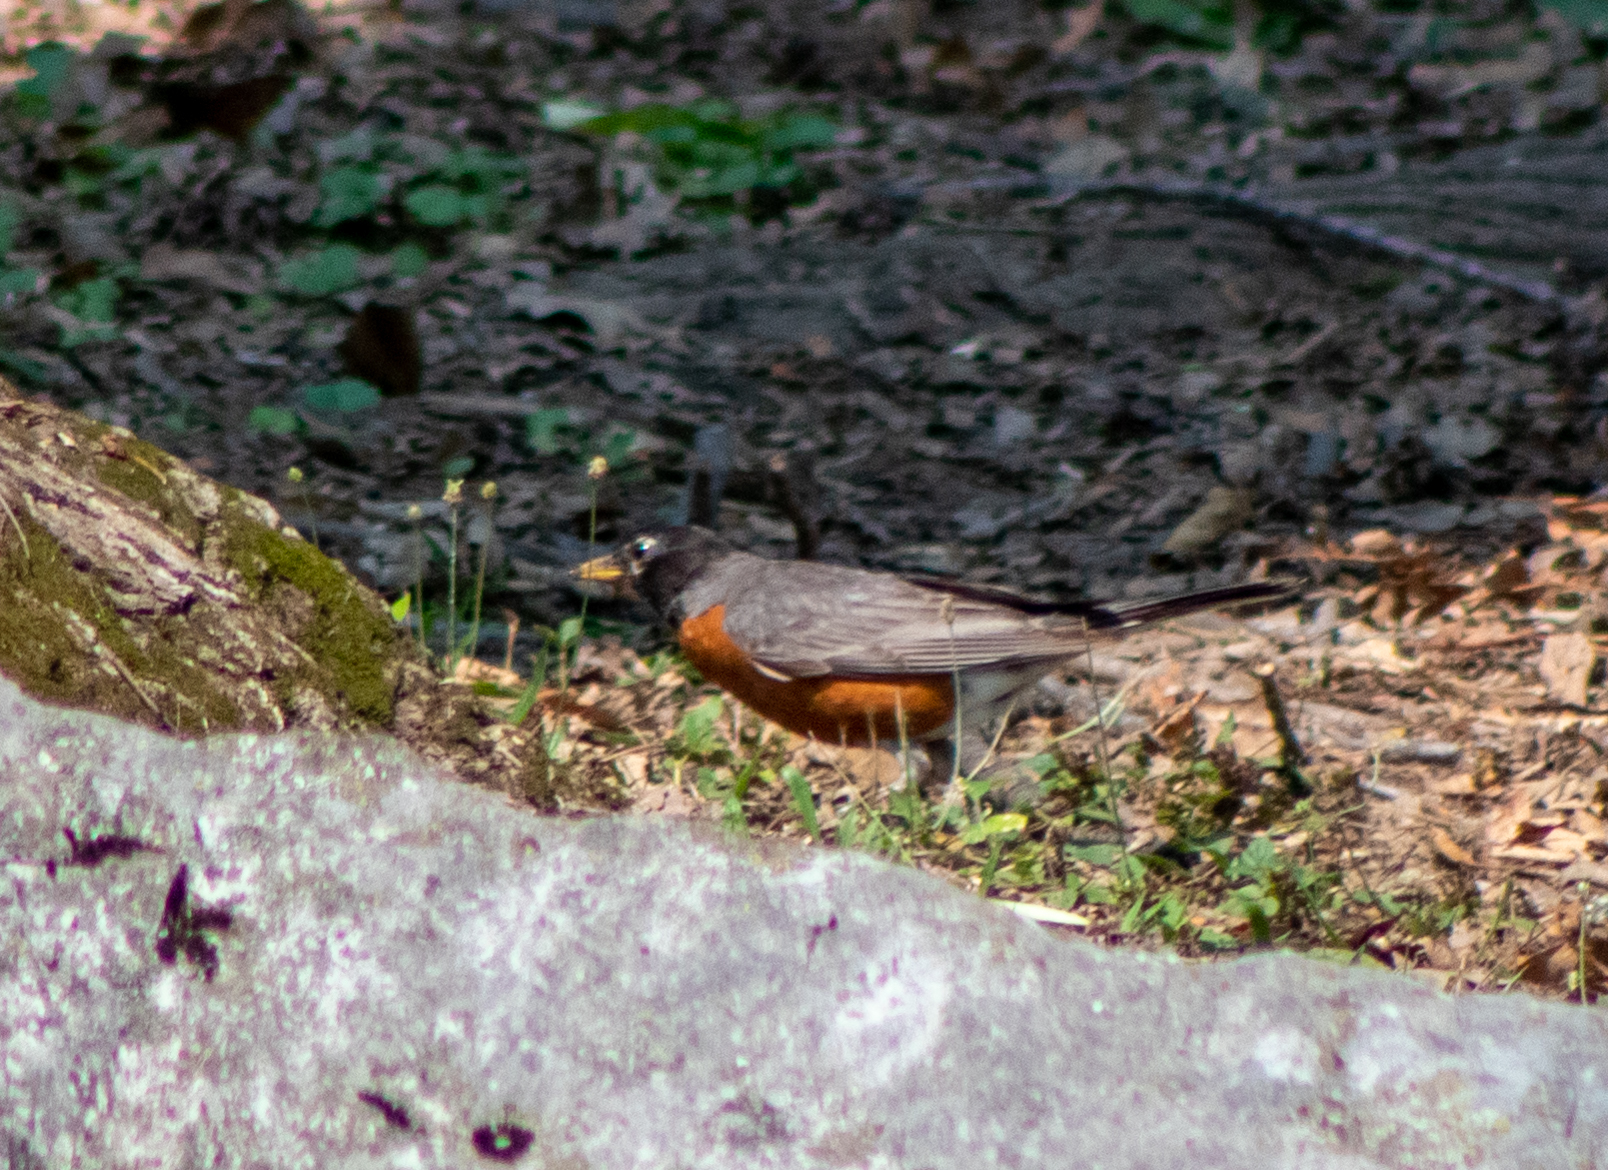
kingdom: Animalia
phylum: Chordata
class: Aves
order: Passeriformes
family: Turdidae
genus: Turdus
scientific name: Turdus migratorius
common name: American robin
